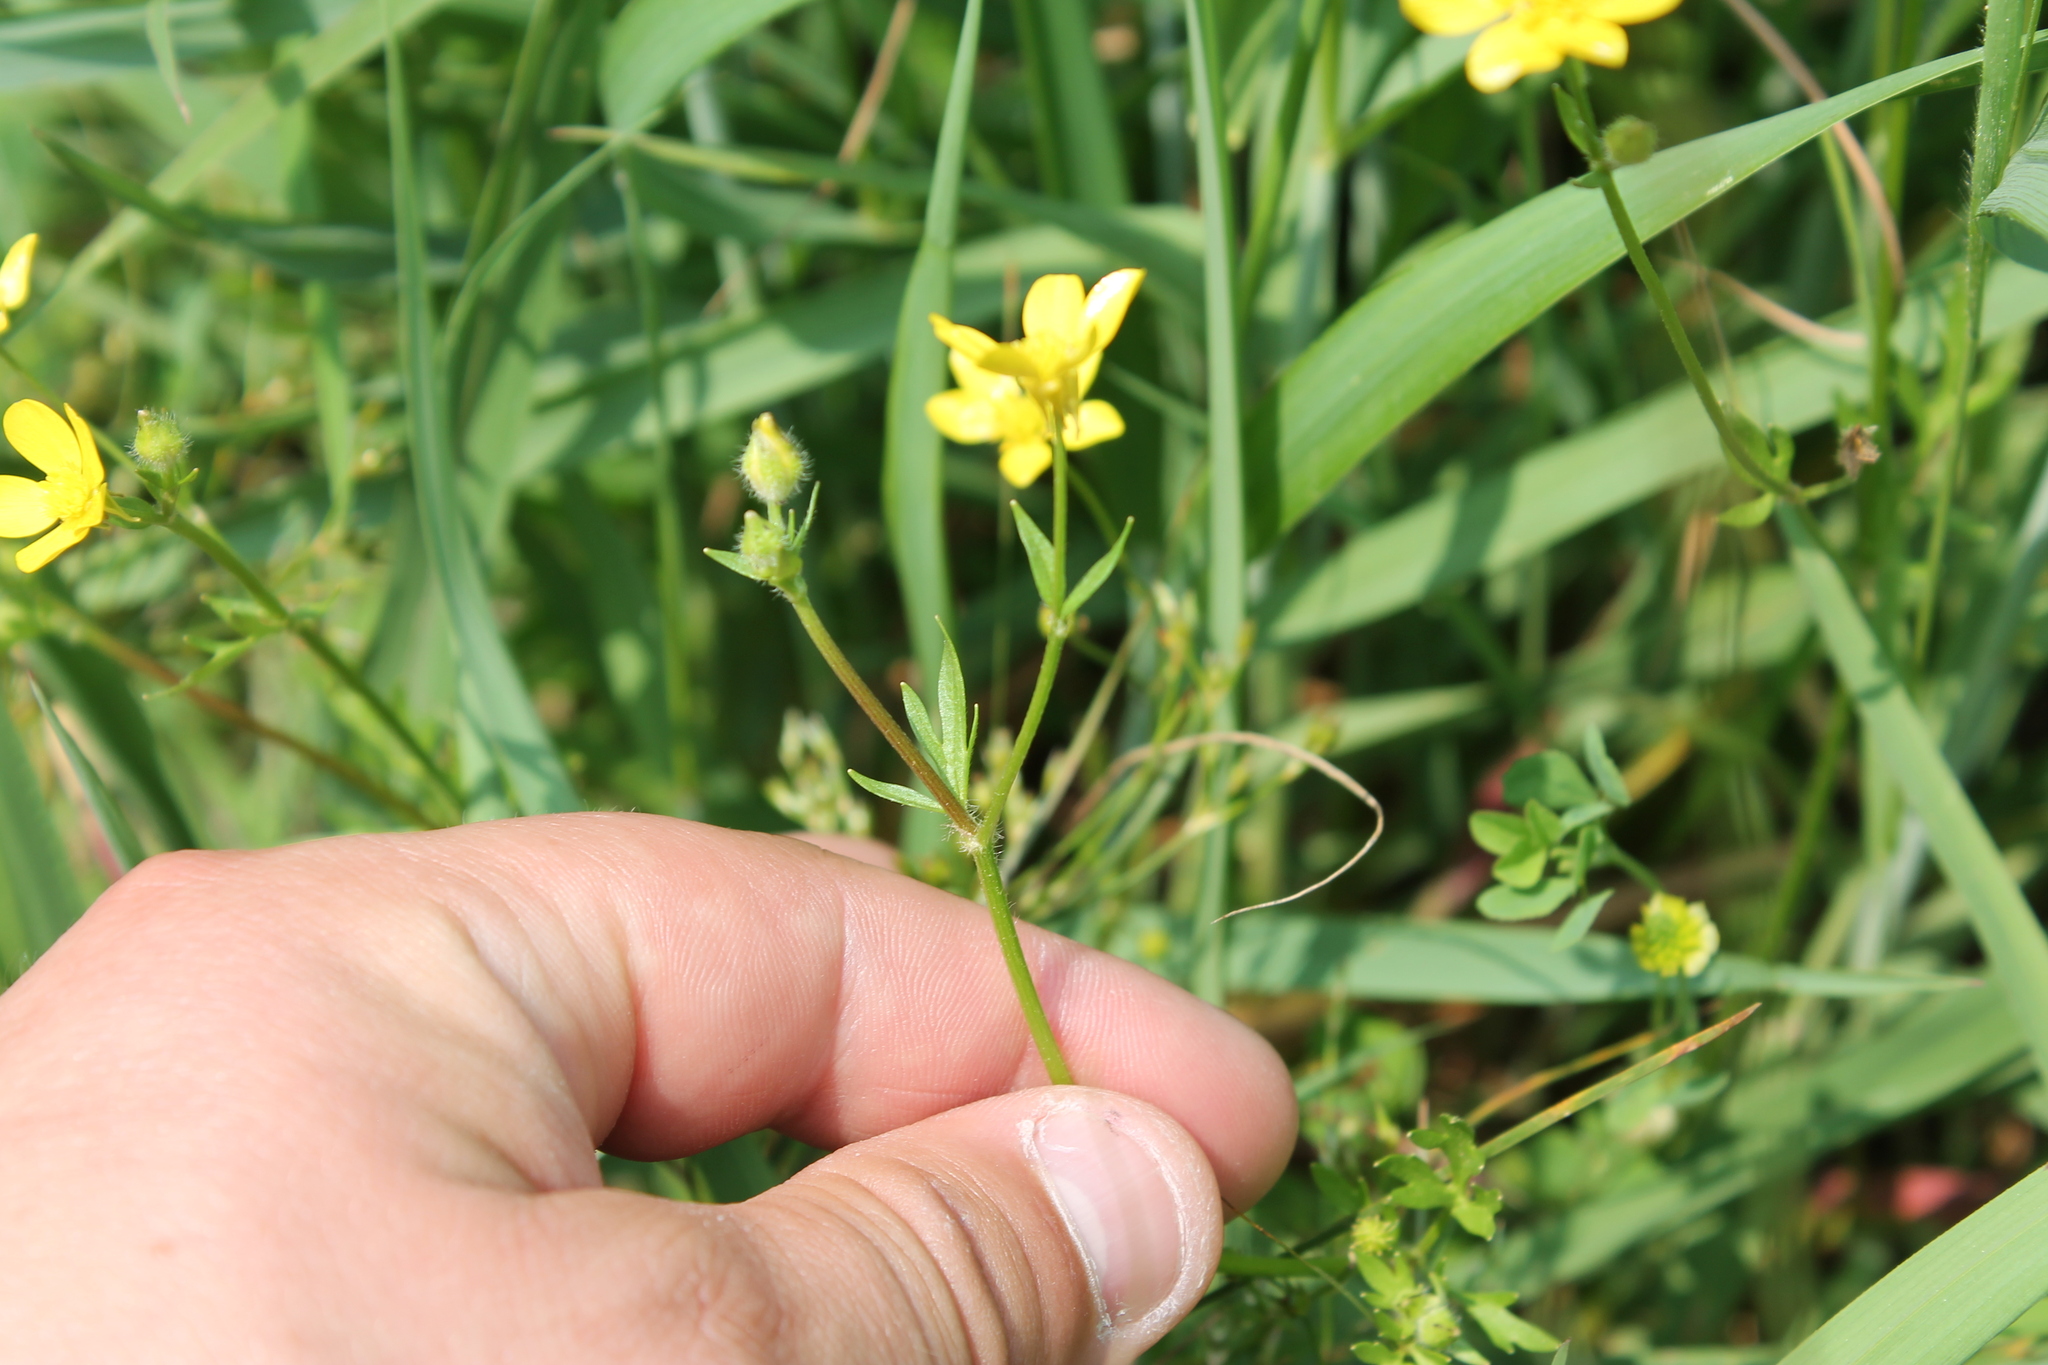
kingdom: Plantae
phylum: Tracheophyta
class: Magnoliopsida
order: Ranunculales
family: Ranunculaceae
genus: Ranunculus
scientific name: Ranunculus sardous
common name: Hairy buttercup
